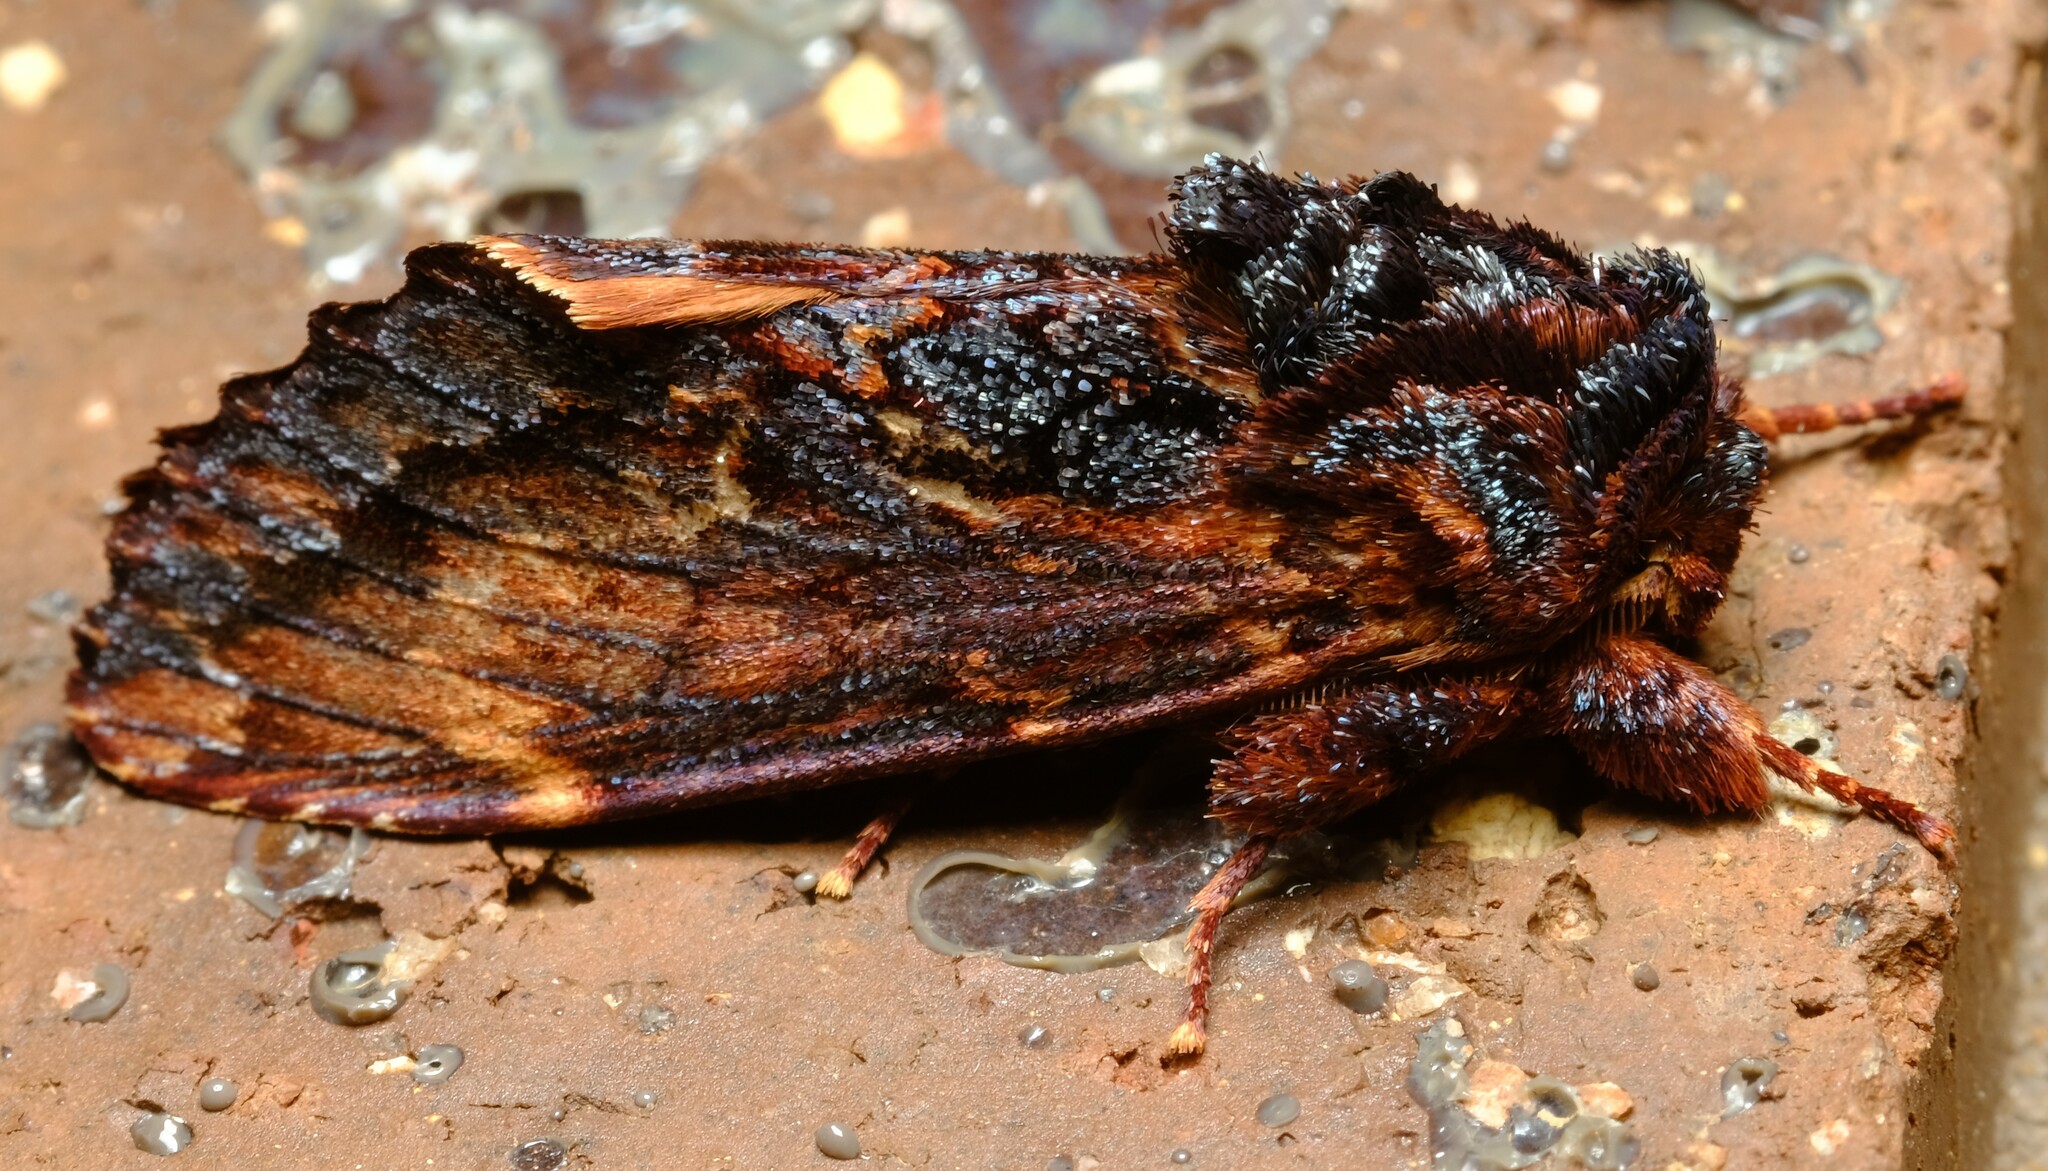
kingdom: Animalia
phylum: Arthropoda
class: Insecta
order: Lepidoptera
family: Notodontidae
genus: Sorama
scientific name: Sorama bicolor
